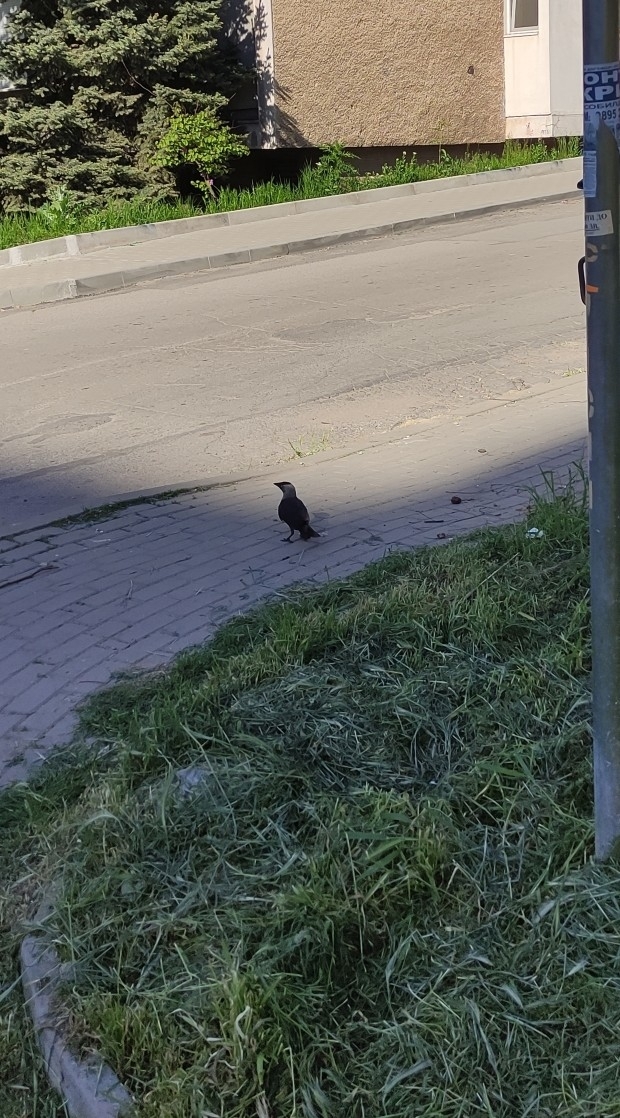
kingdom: Animalia
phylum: Chordata
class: Aves
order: Passeriformes
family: Corvidae
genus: Coloeus
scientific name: Coloeus monedula
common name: Western jackdaw
